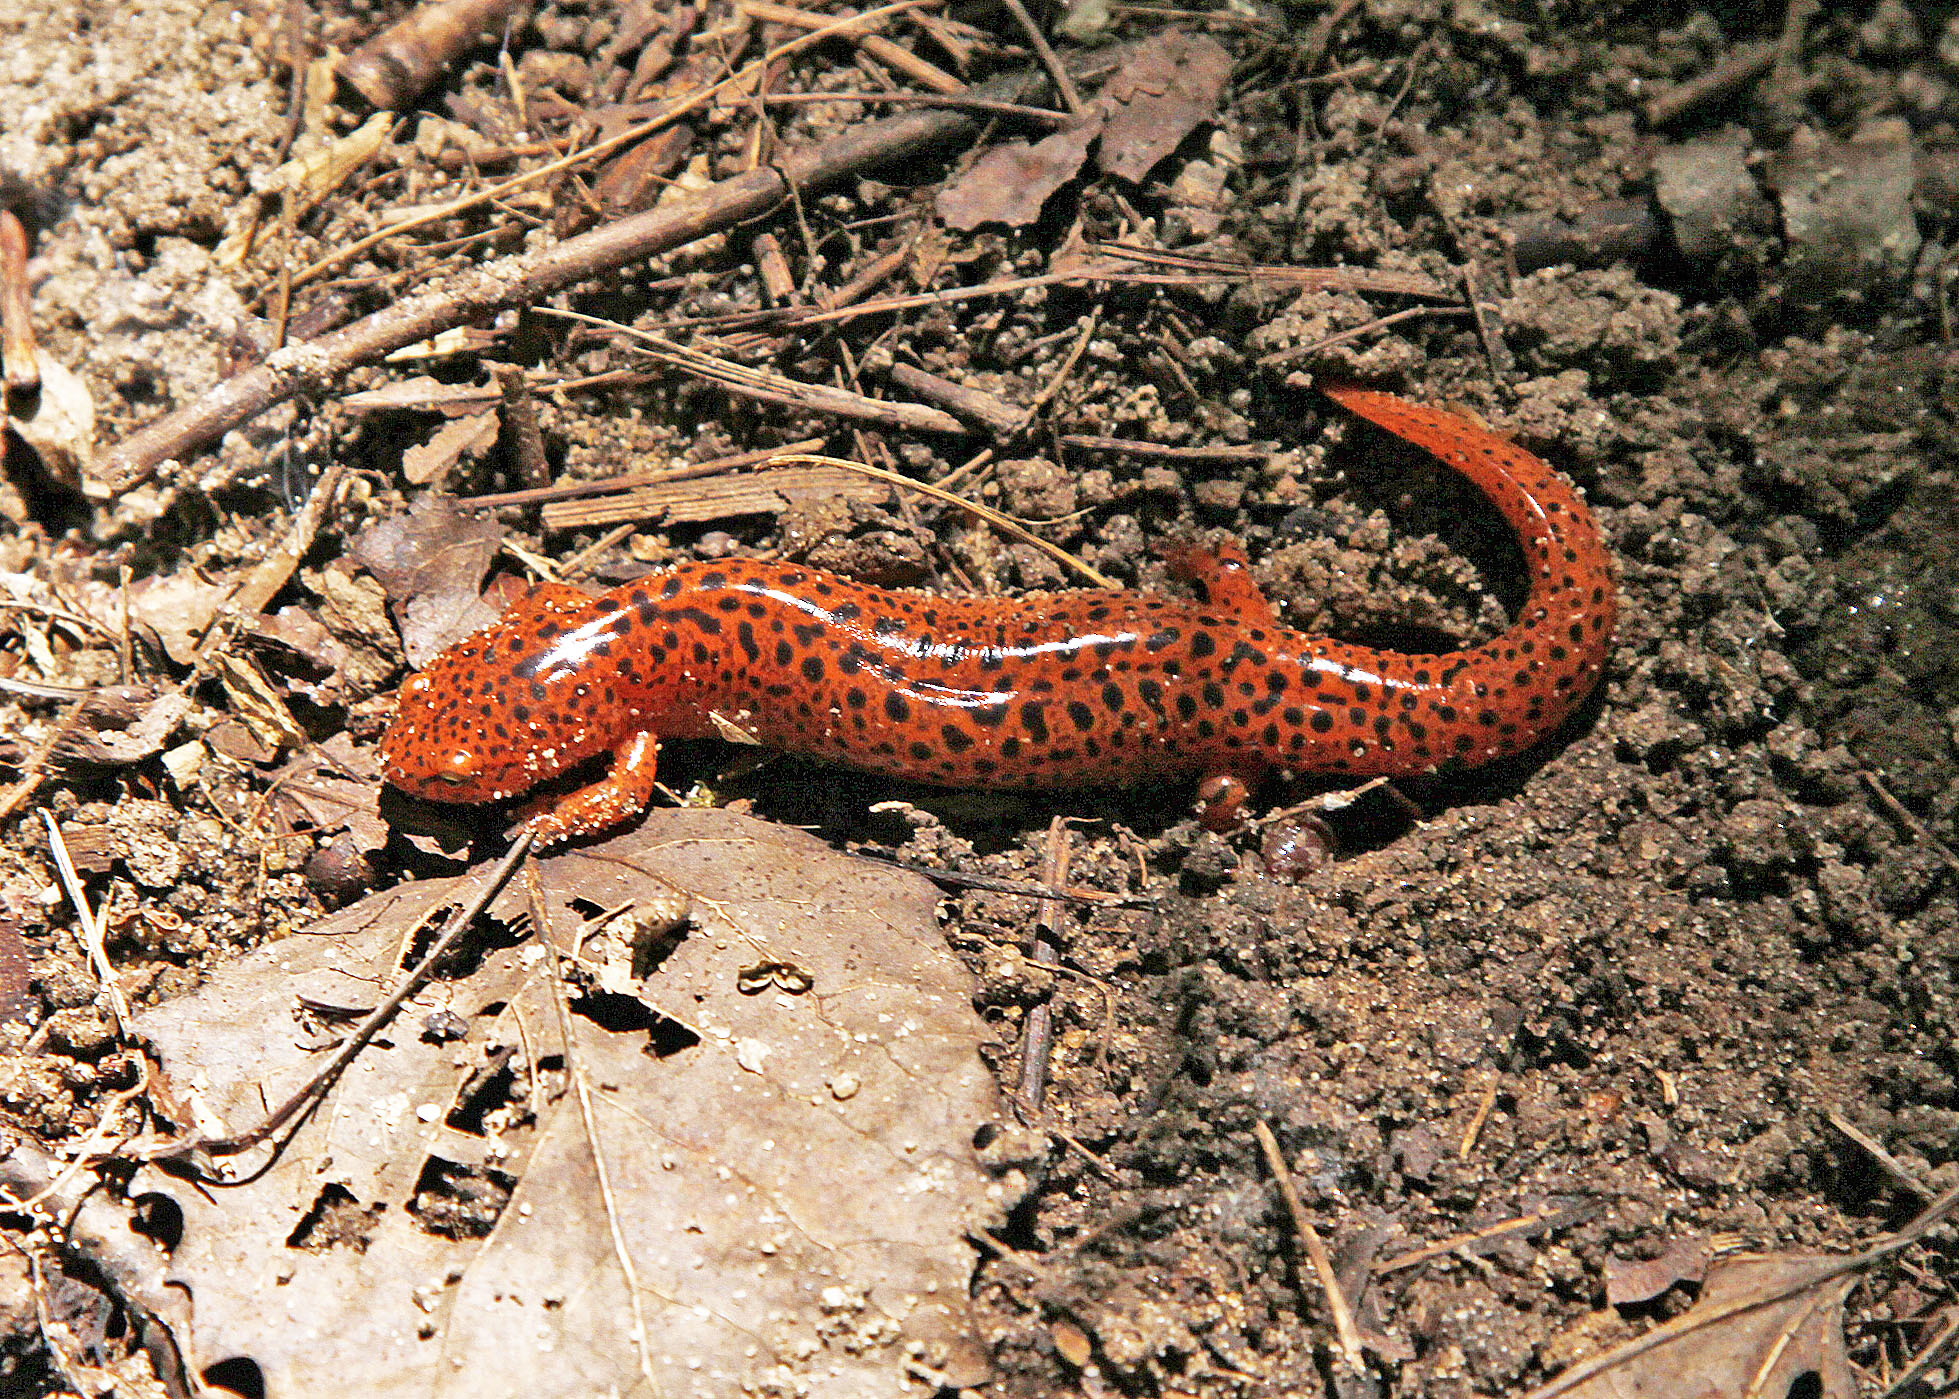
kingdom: Animalia
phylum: Chordata
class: Amphibia
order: Caudata
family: Plethodontidae
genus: Pseudotriton
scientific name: Pseudotriton ruber
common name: Red salamander
